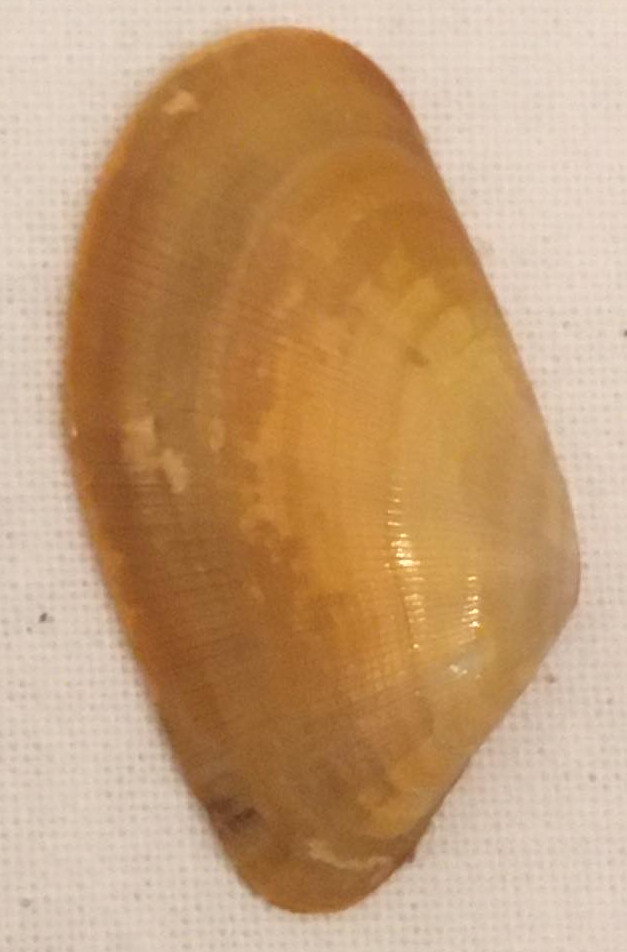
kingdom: Animalia
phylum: Mollusca
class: Bivalvia
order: Cardiida
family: Donacidae
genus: Donax
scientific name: Donax vittatus
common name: Banded wedge-shell
